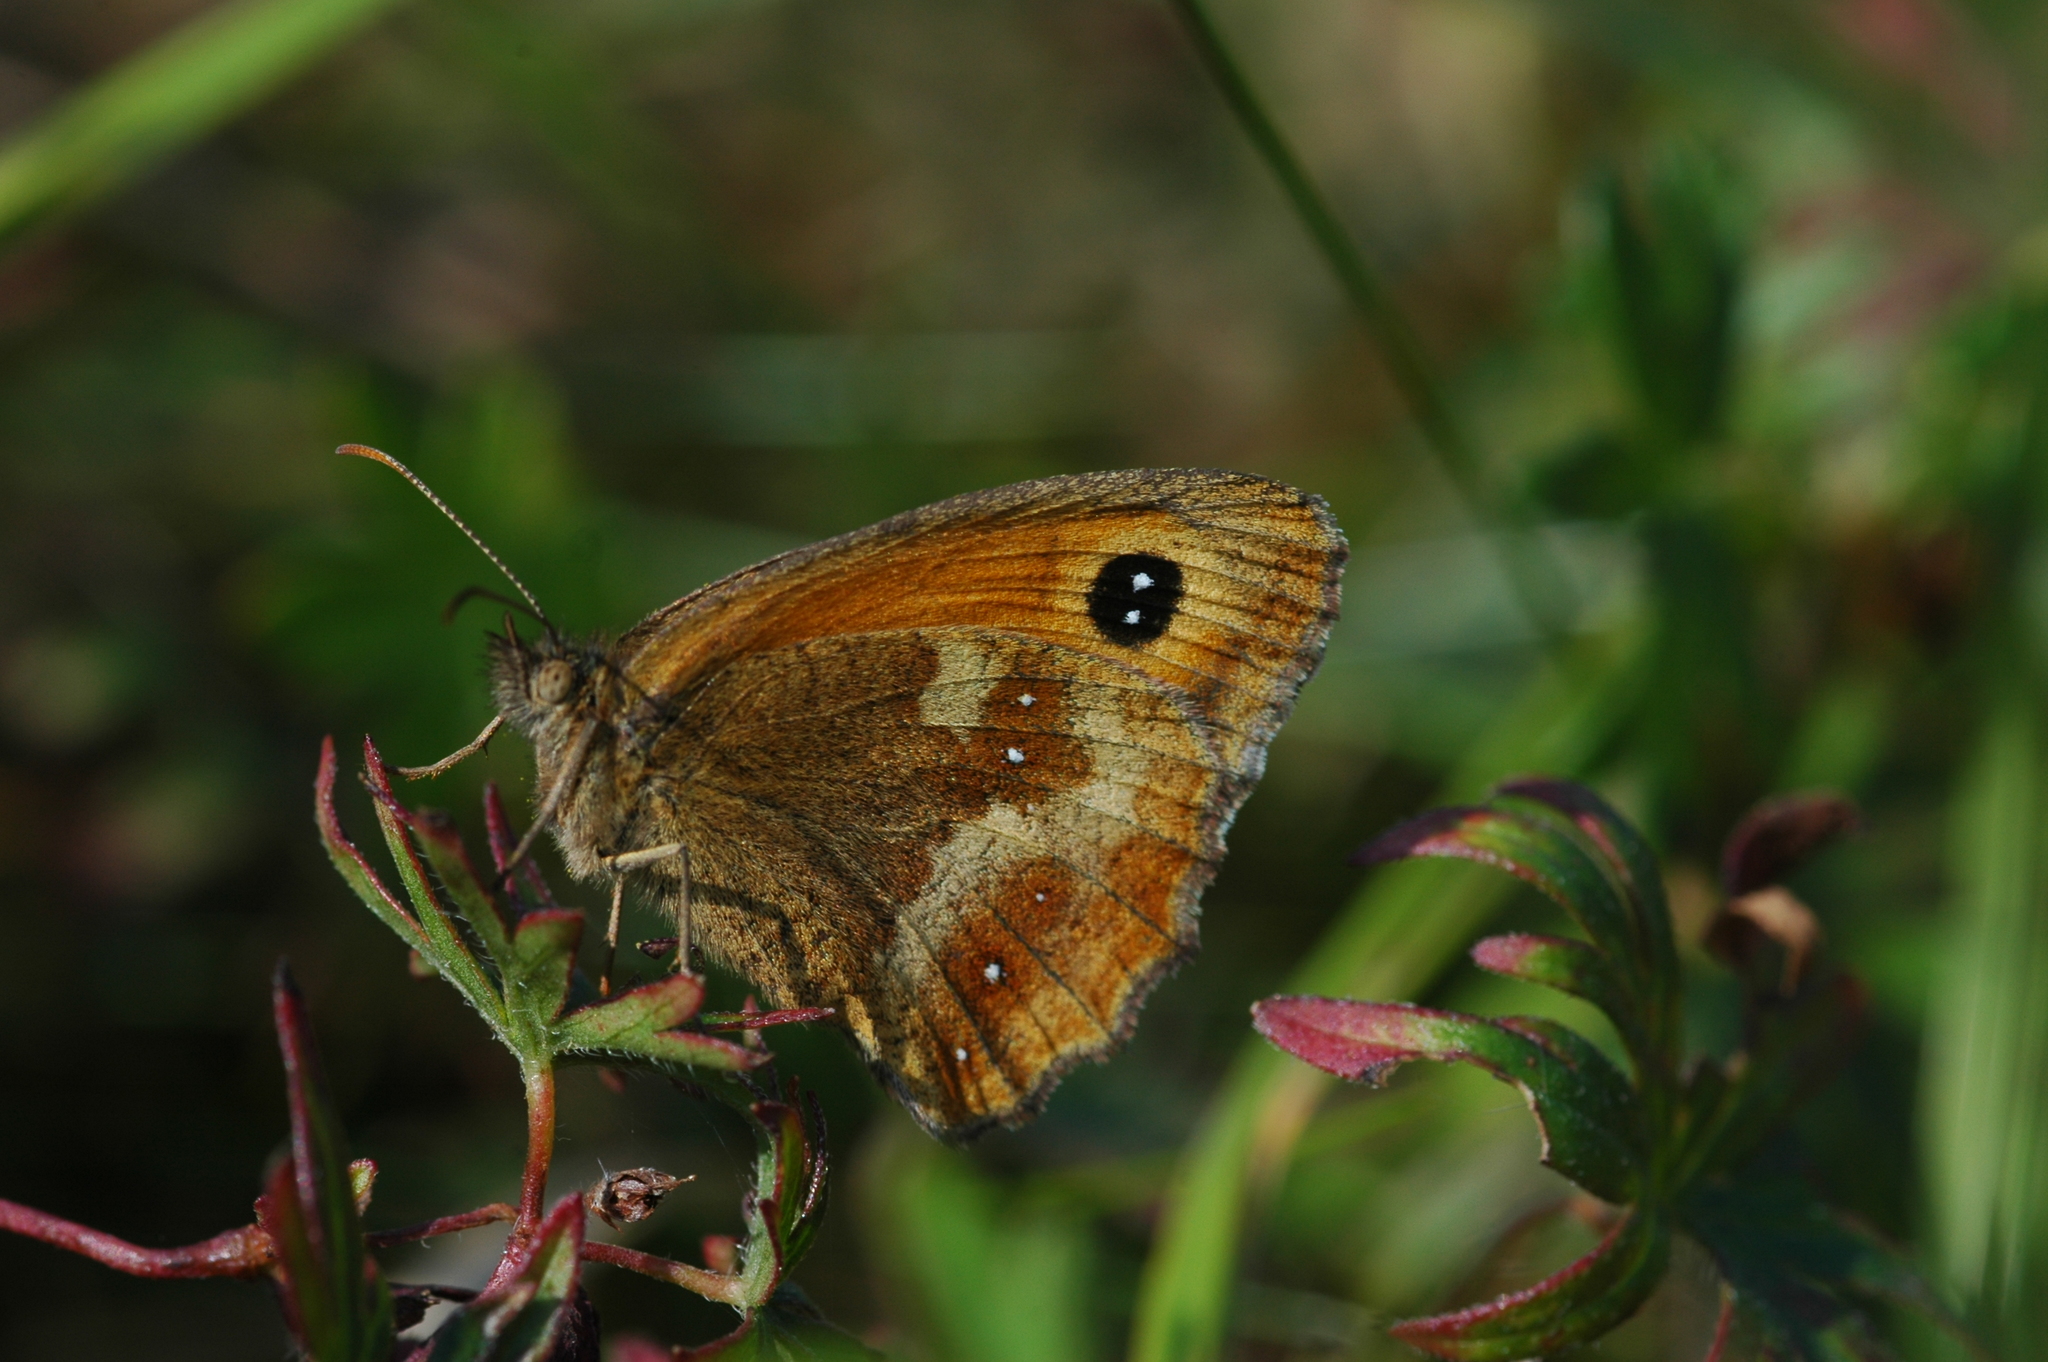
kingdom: Animalia
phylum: Arthropoda
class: Insecta
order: Lepidoptera
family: Nymphalidae
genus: Pyronia
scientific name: Pyronia tithonus
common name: Gatekeeper
